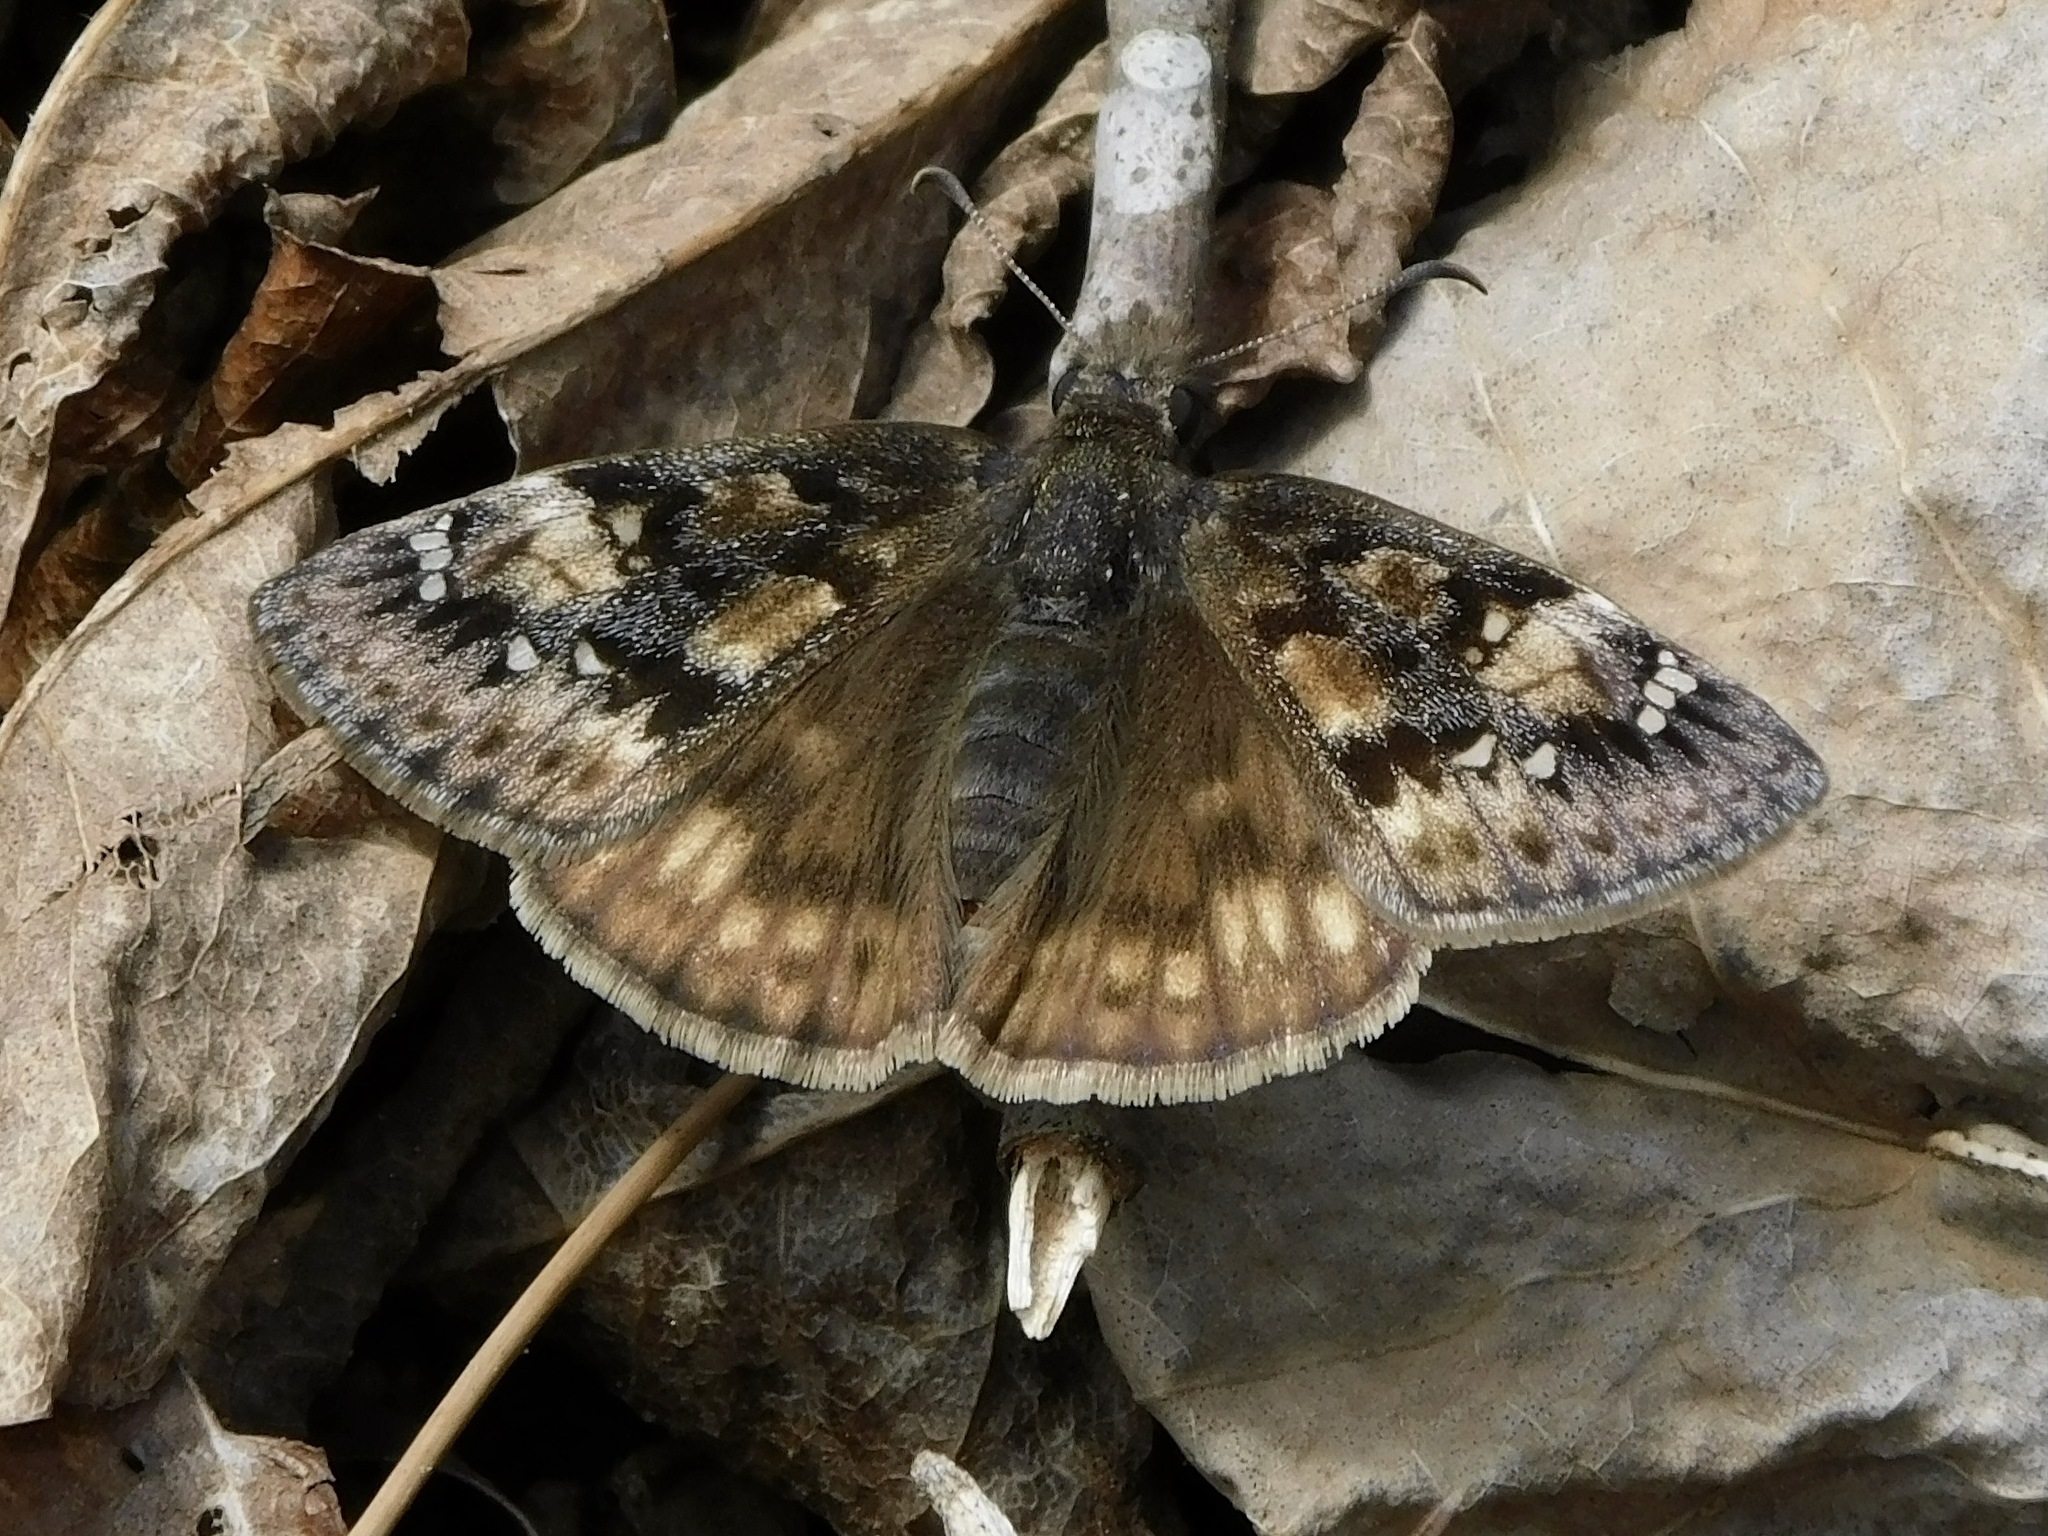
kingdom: Animalia
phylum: Arthropoda
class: Insecta
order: Lepidoptera
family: Hesperiidae
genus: Erynnis
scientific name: Erynnis juvenalis
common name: Juvenal's duskywing
